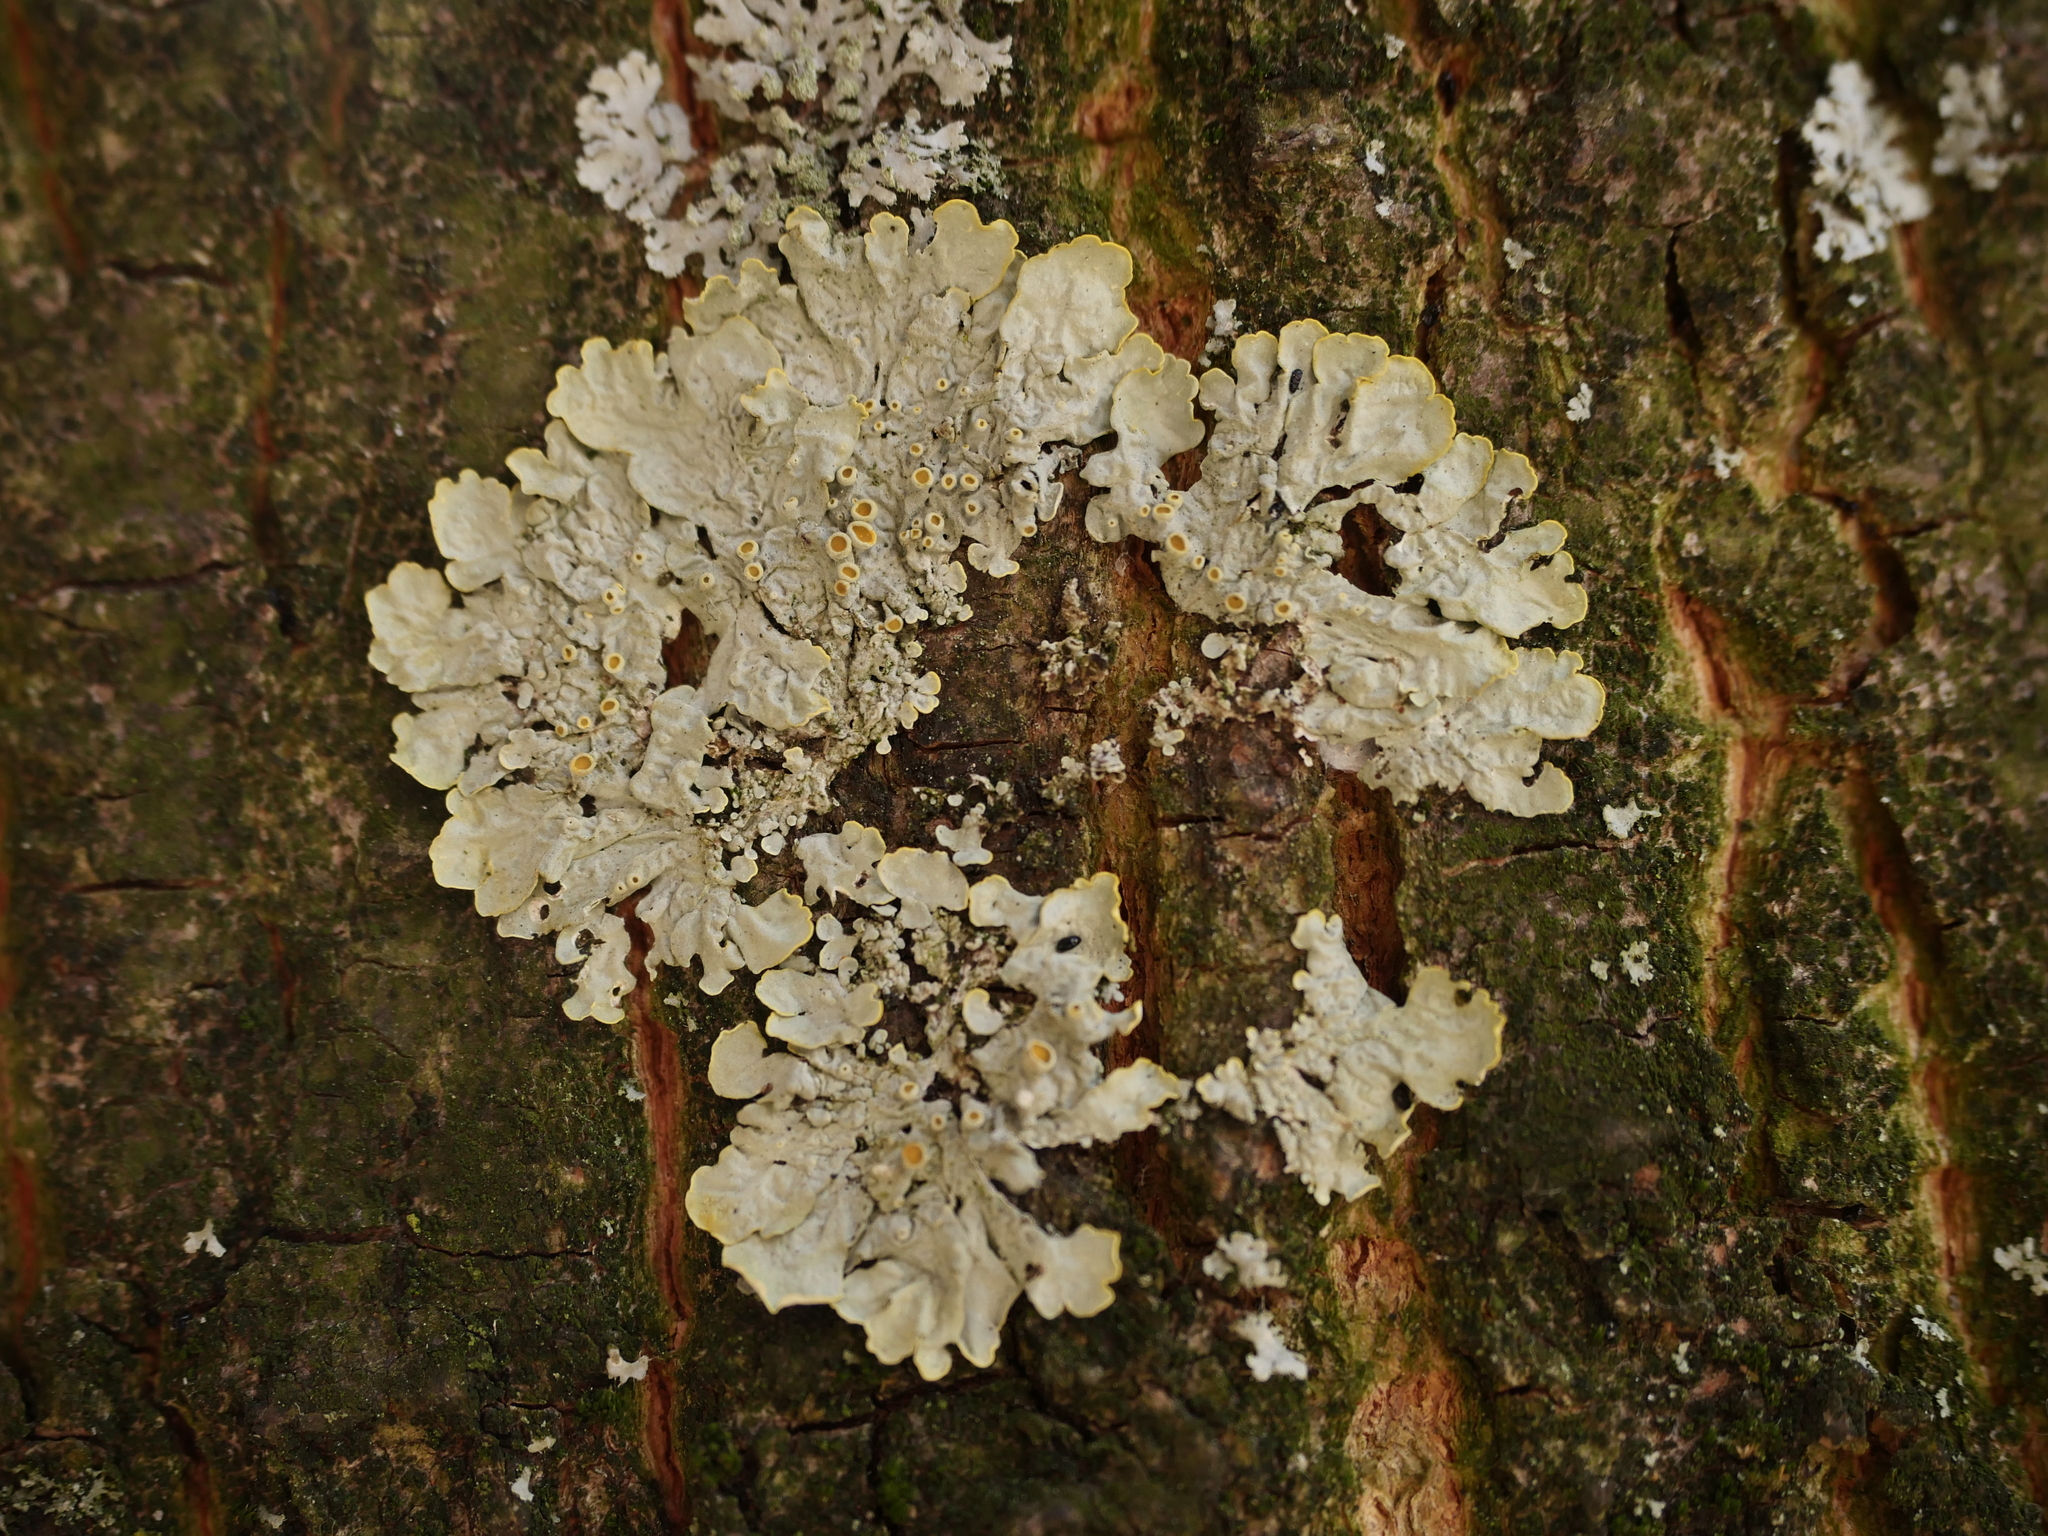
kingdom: Fungi
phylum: Ascomycota
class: Lecanoromycetes
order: Teloschistales
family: Teloschistaceae
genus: Xanthoria
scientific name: Xanthoria parietina
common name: Common orange lichen
